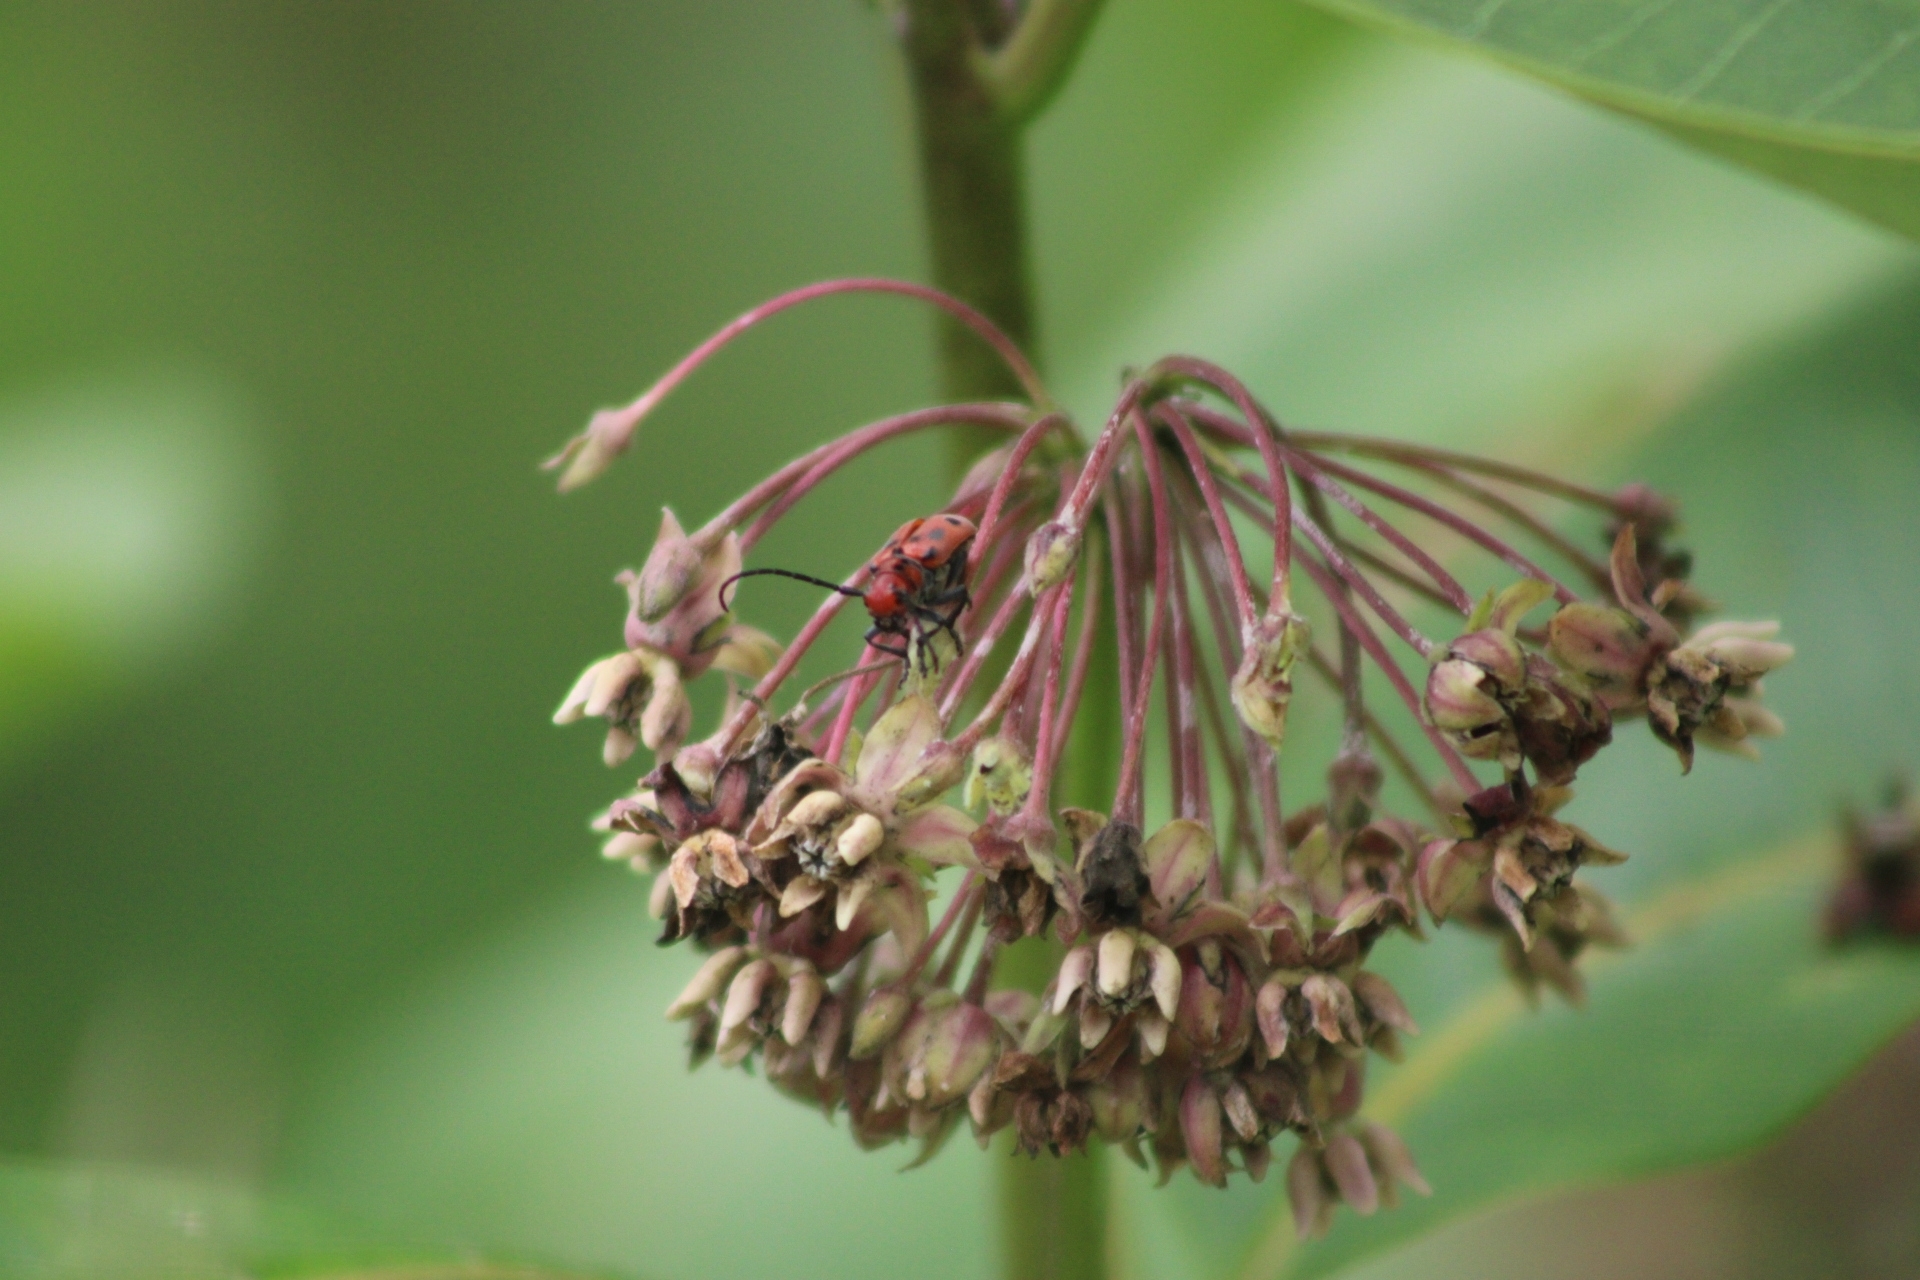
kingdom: Animalia
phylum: Arthropoda
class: Insecta
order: Coleoptera
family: Cerambycidae
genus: Tetraopes
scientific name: Tetraopes tetrophthalmus
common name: Red milkweed beetle
